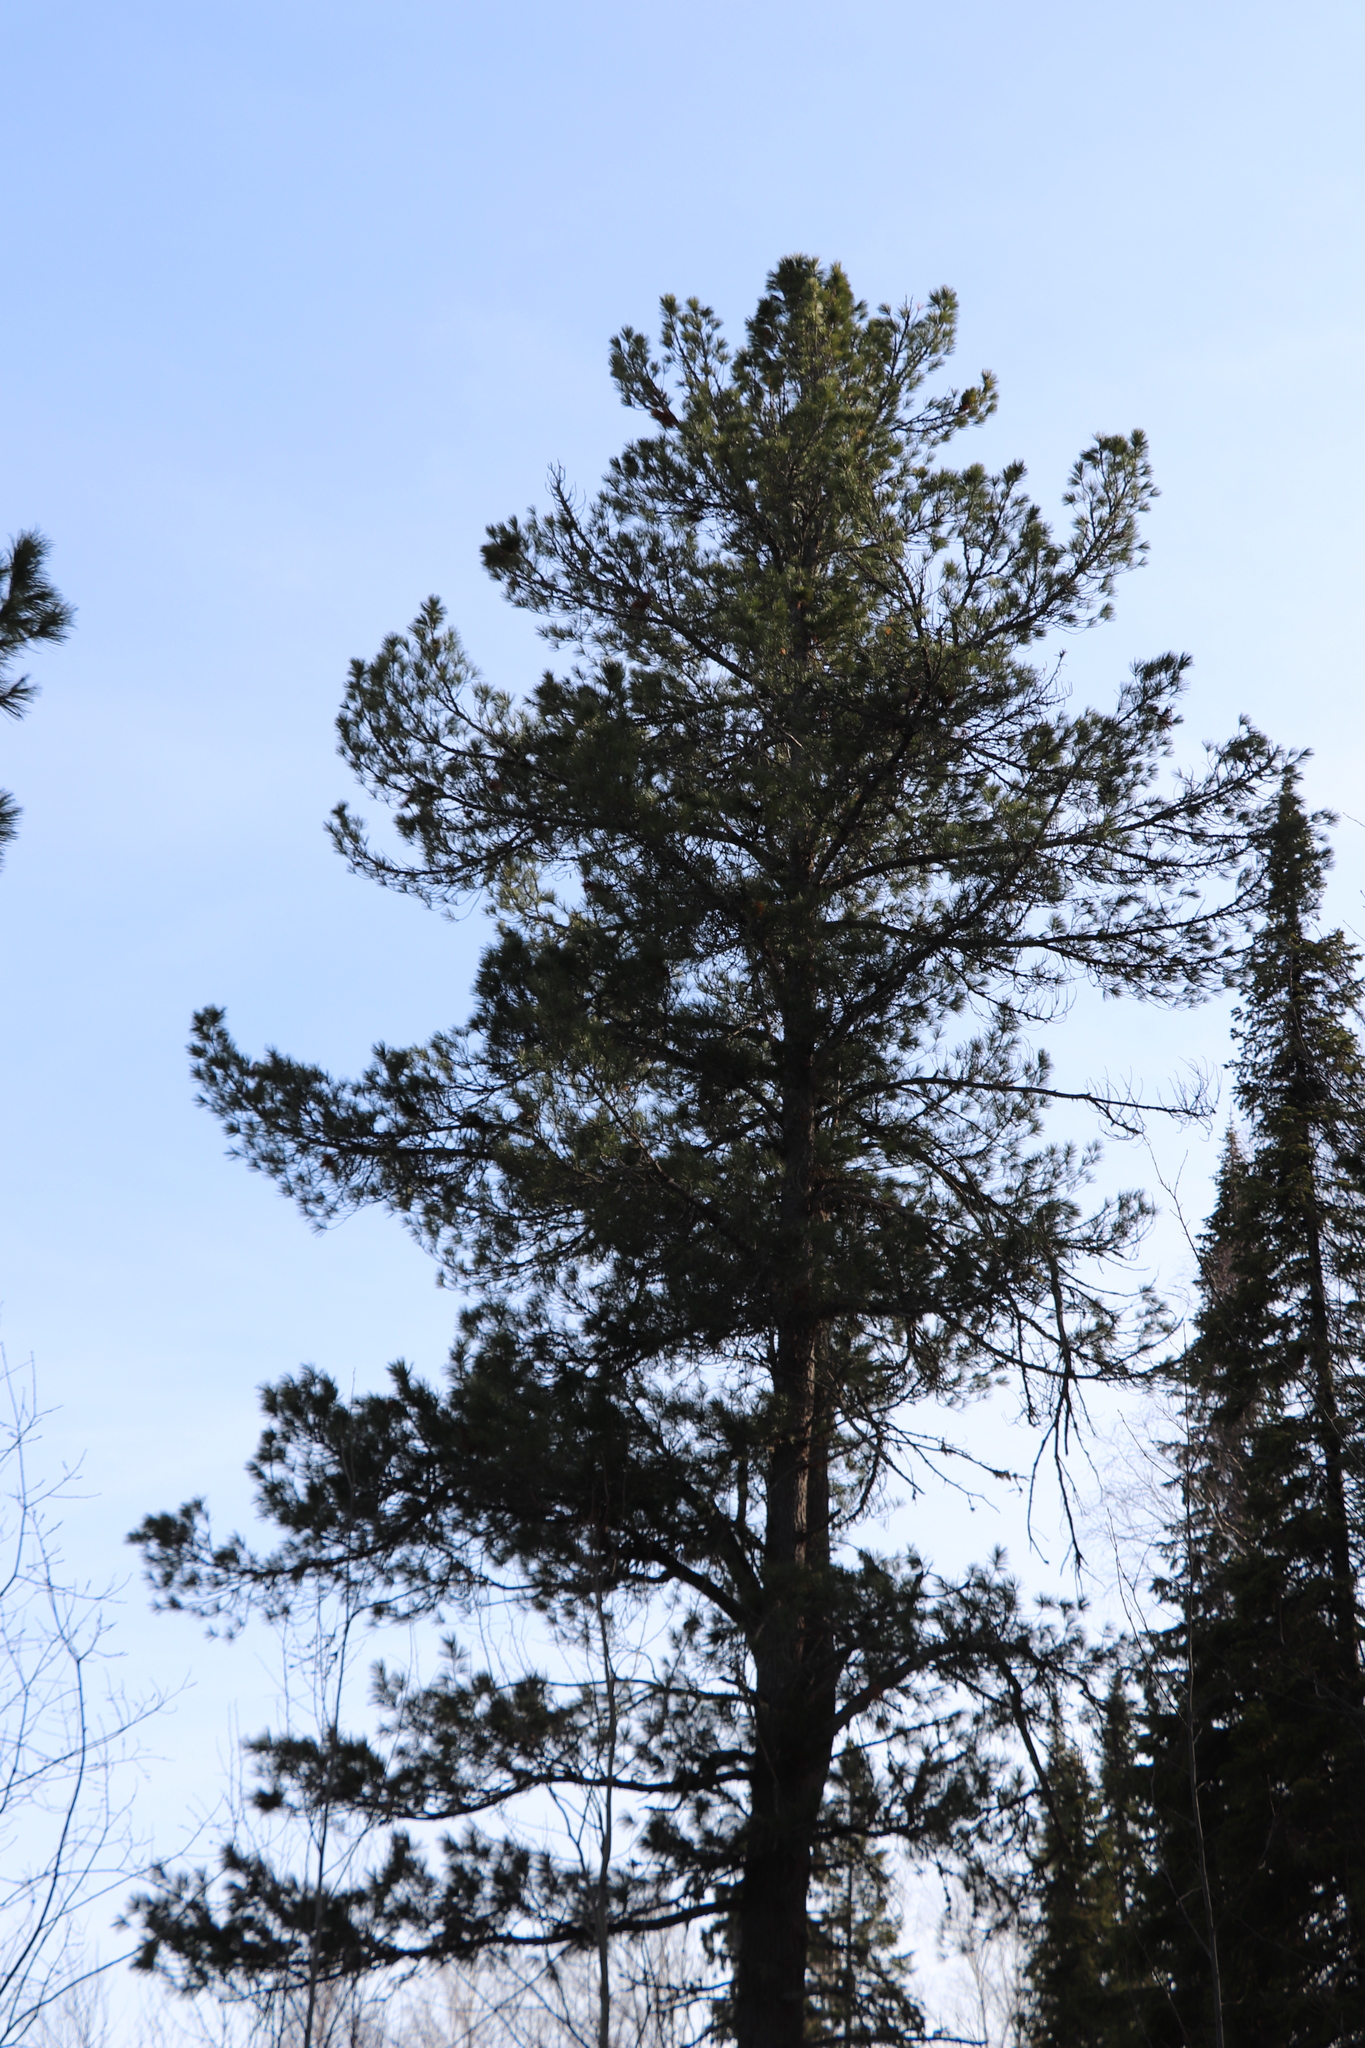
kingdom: Plantae
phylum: Tracheophyta
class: Pinopsida
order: Pinales
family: Pinaceae
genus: Pinus
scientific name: Pinus sibirica
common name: Siberian pine
